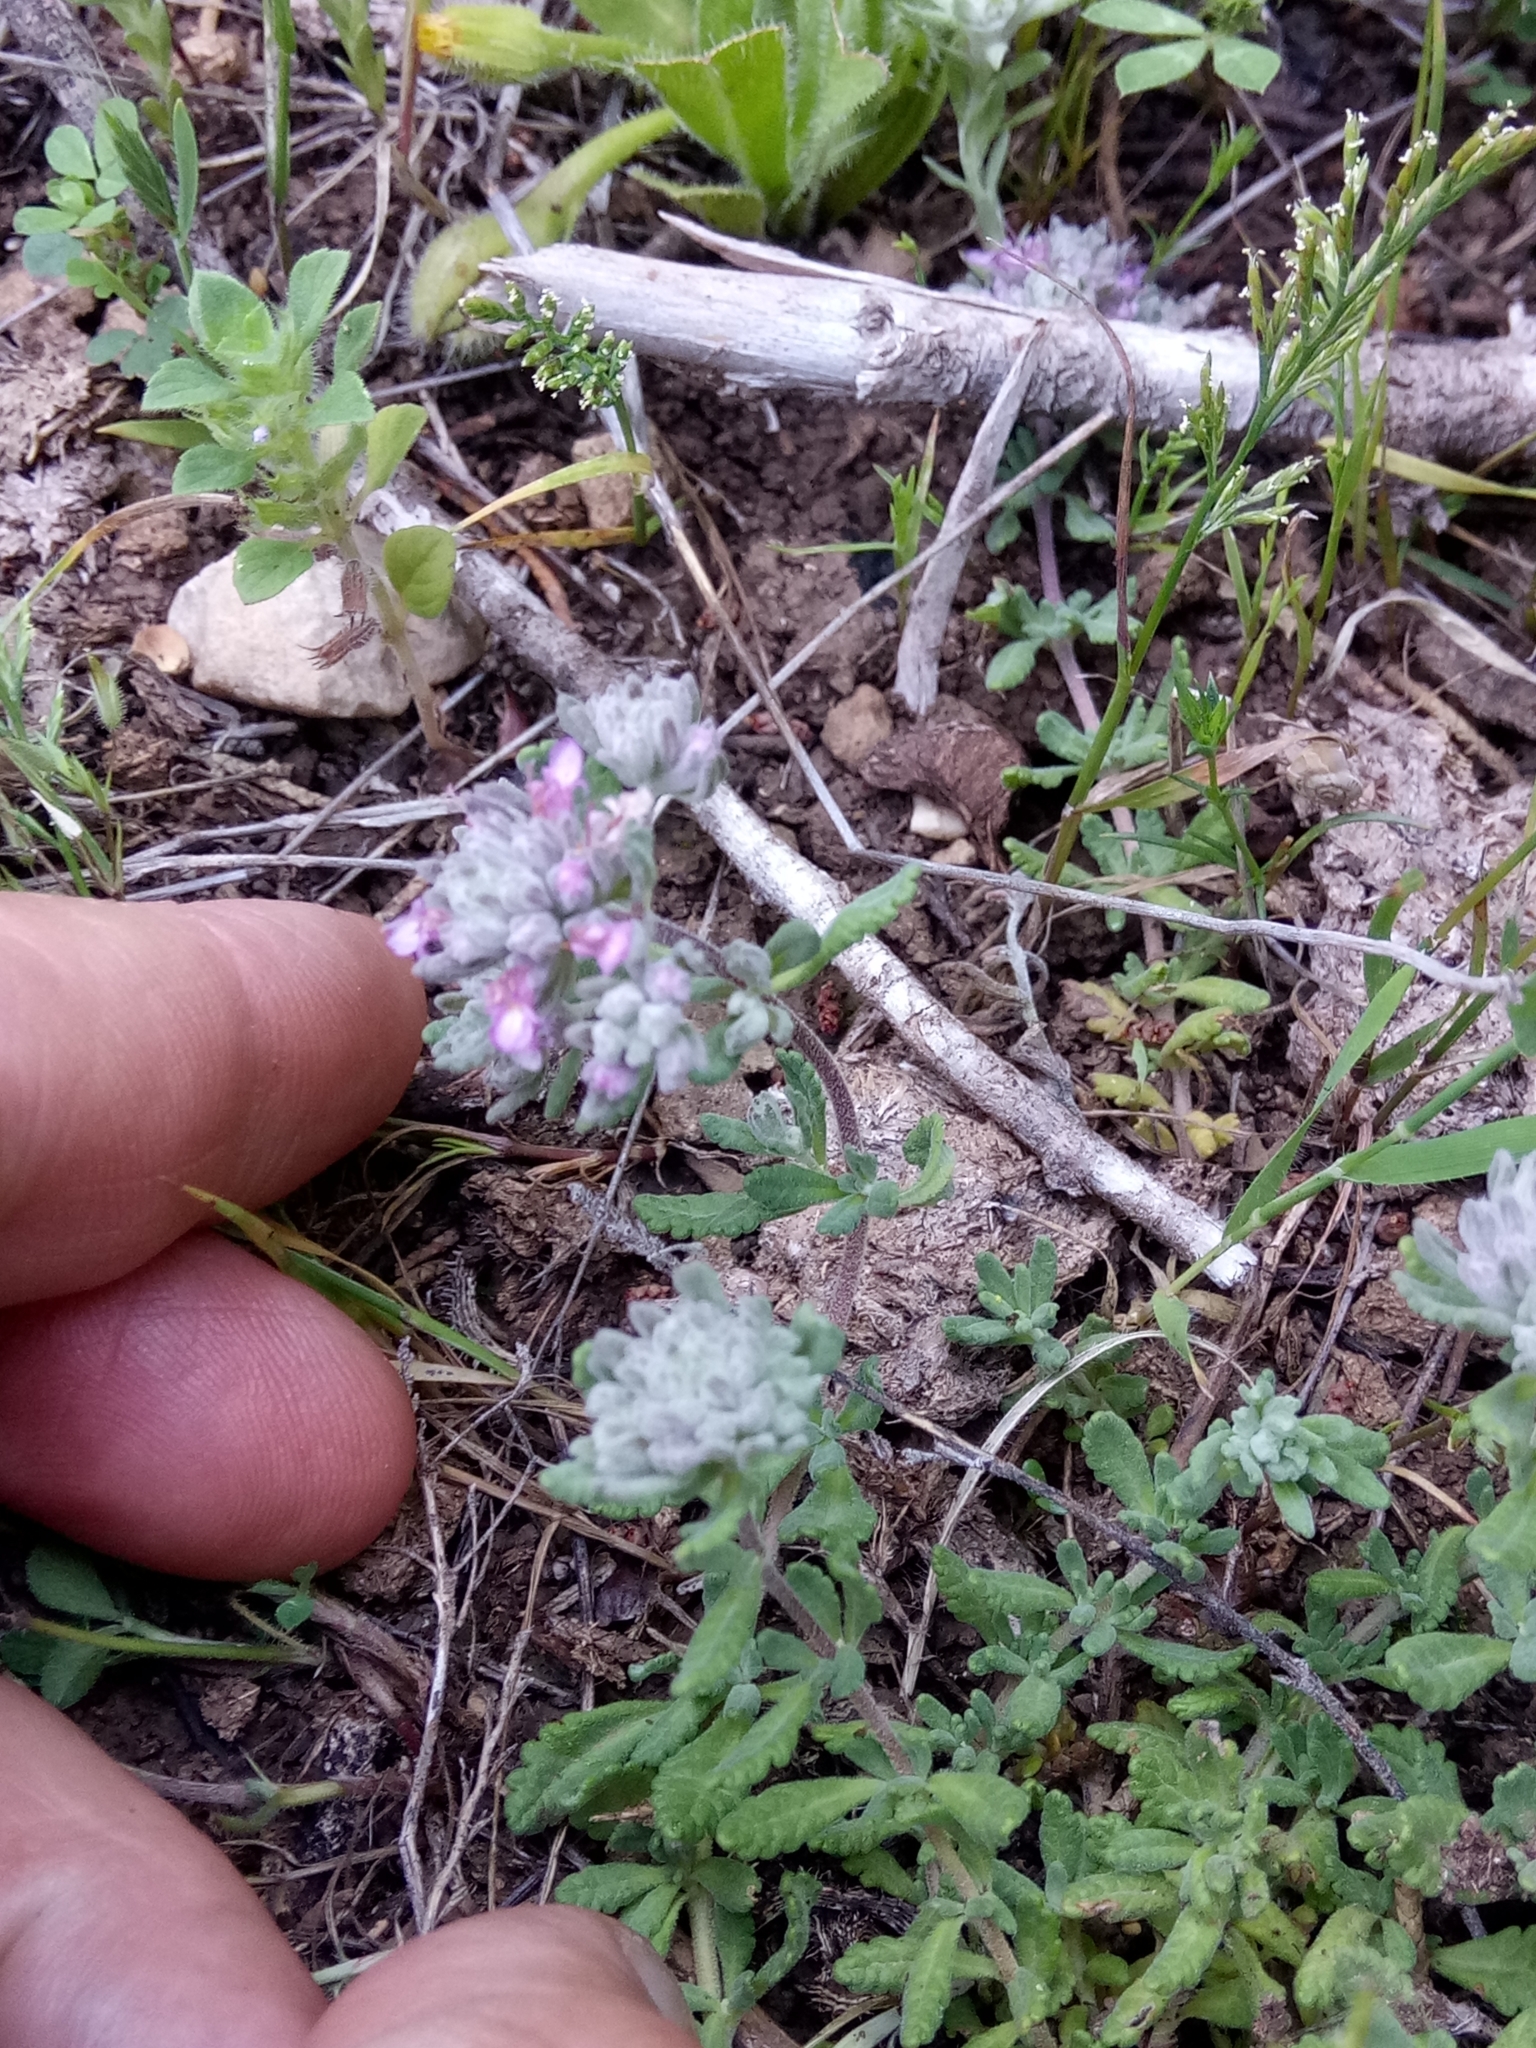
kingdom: Plantae
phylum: Tracheophyta
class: Magnoliopsida
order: Lamiales
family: Lamiaceae
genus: Teucrium
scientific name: Teucrium capitatum
